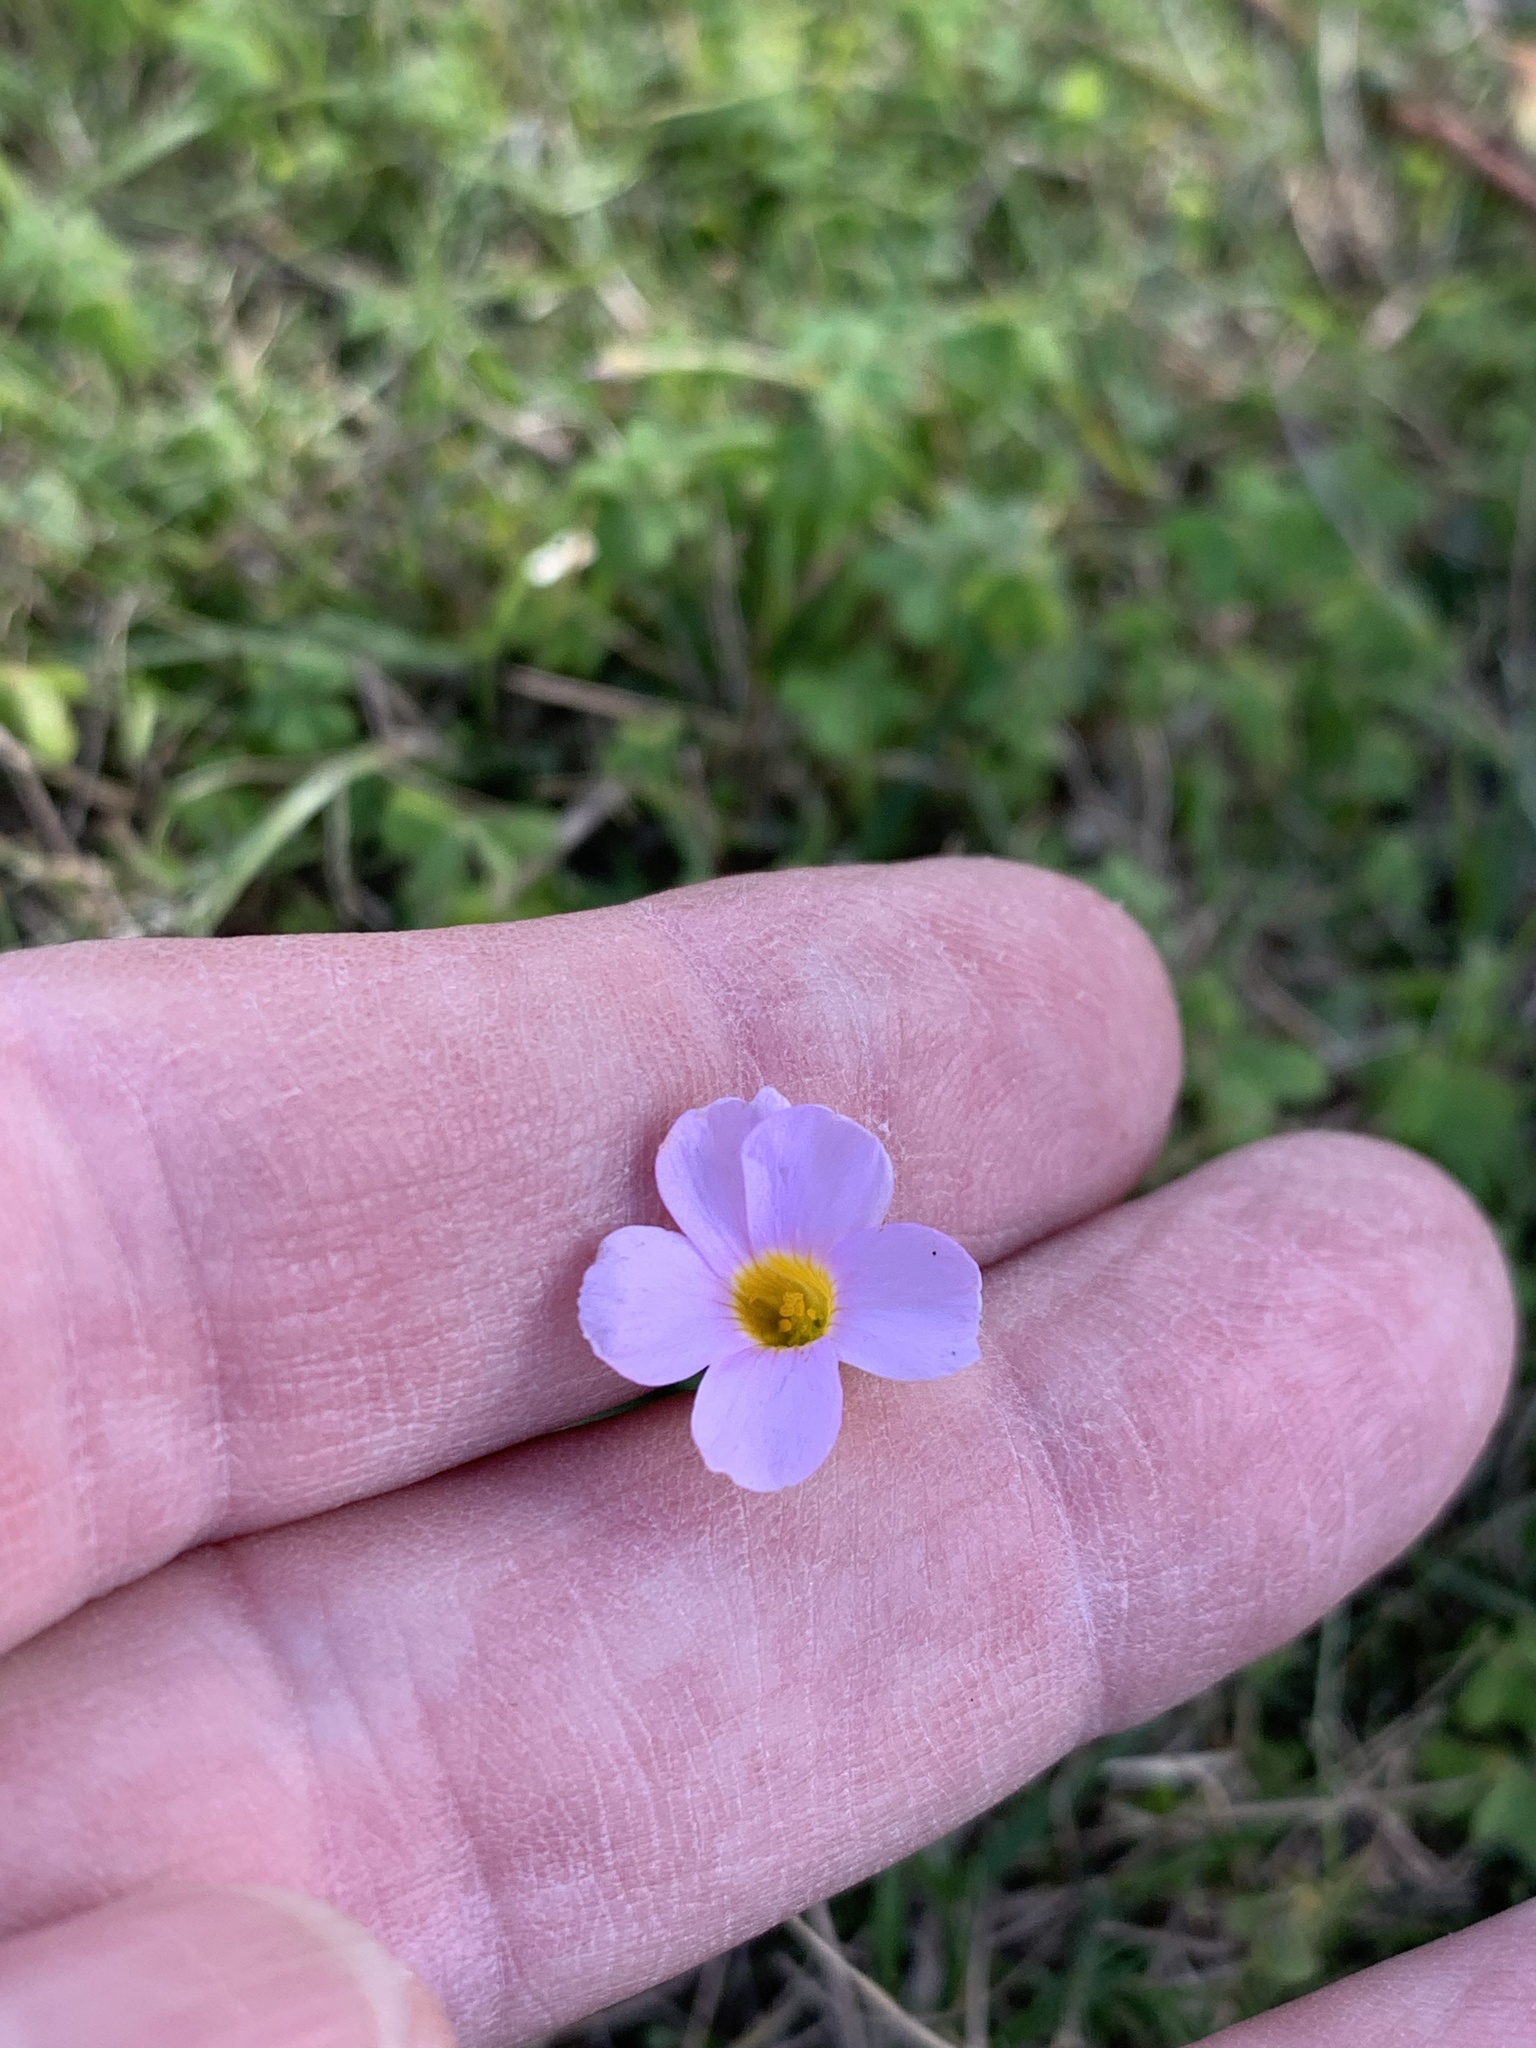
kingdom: Plantae
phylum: Tracheophyta
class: Magnoliopsida
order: Oxalidales
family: Oxalidaceae
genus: Oxalis
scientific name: Oxalis caprina
